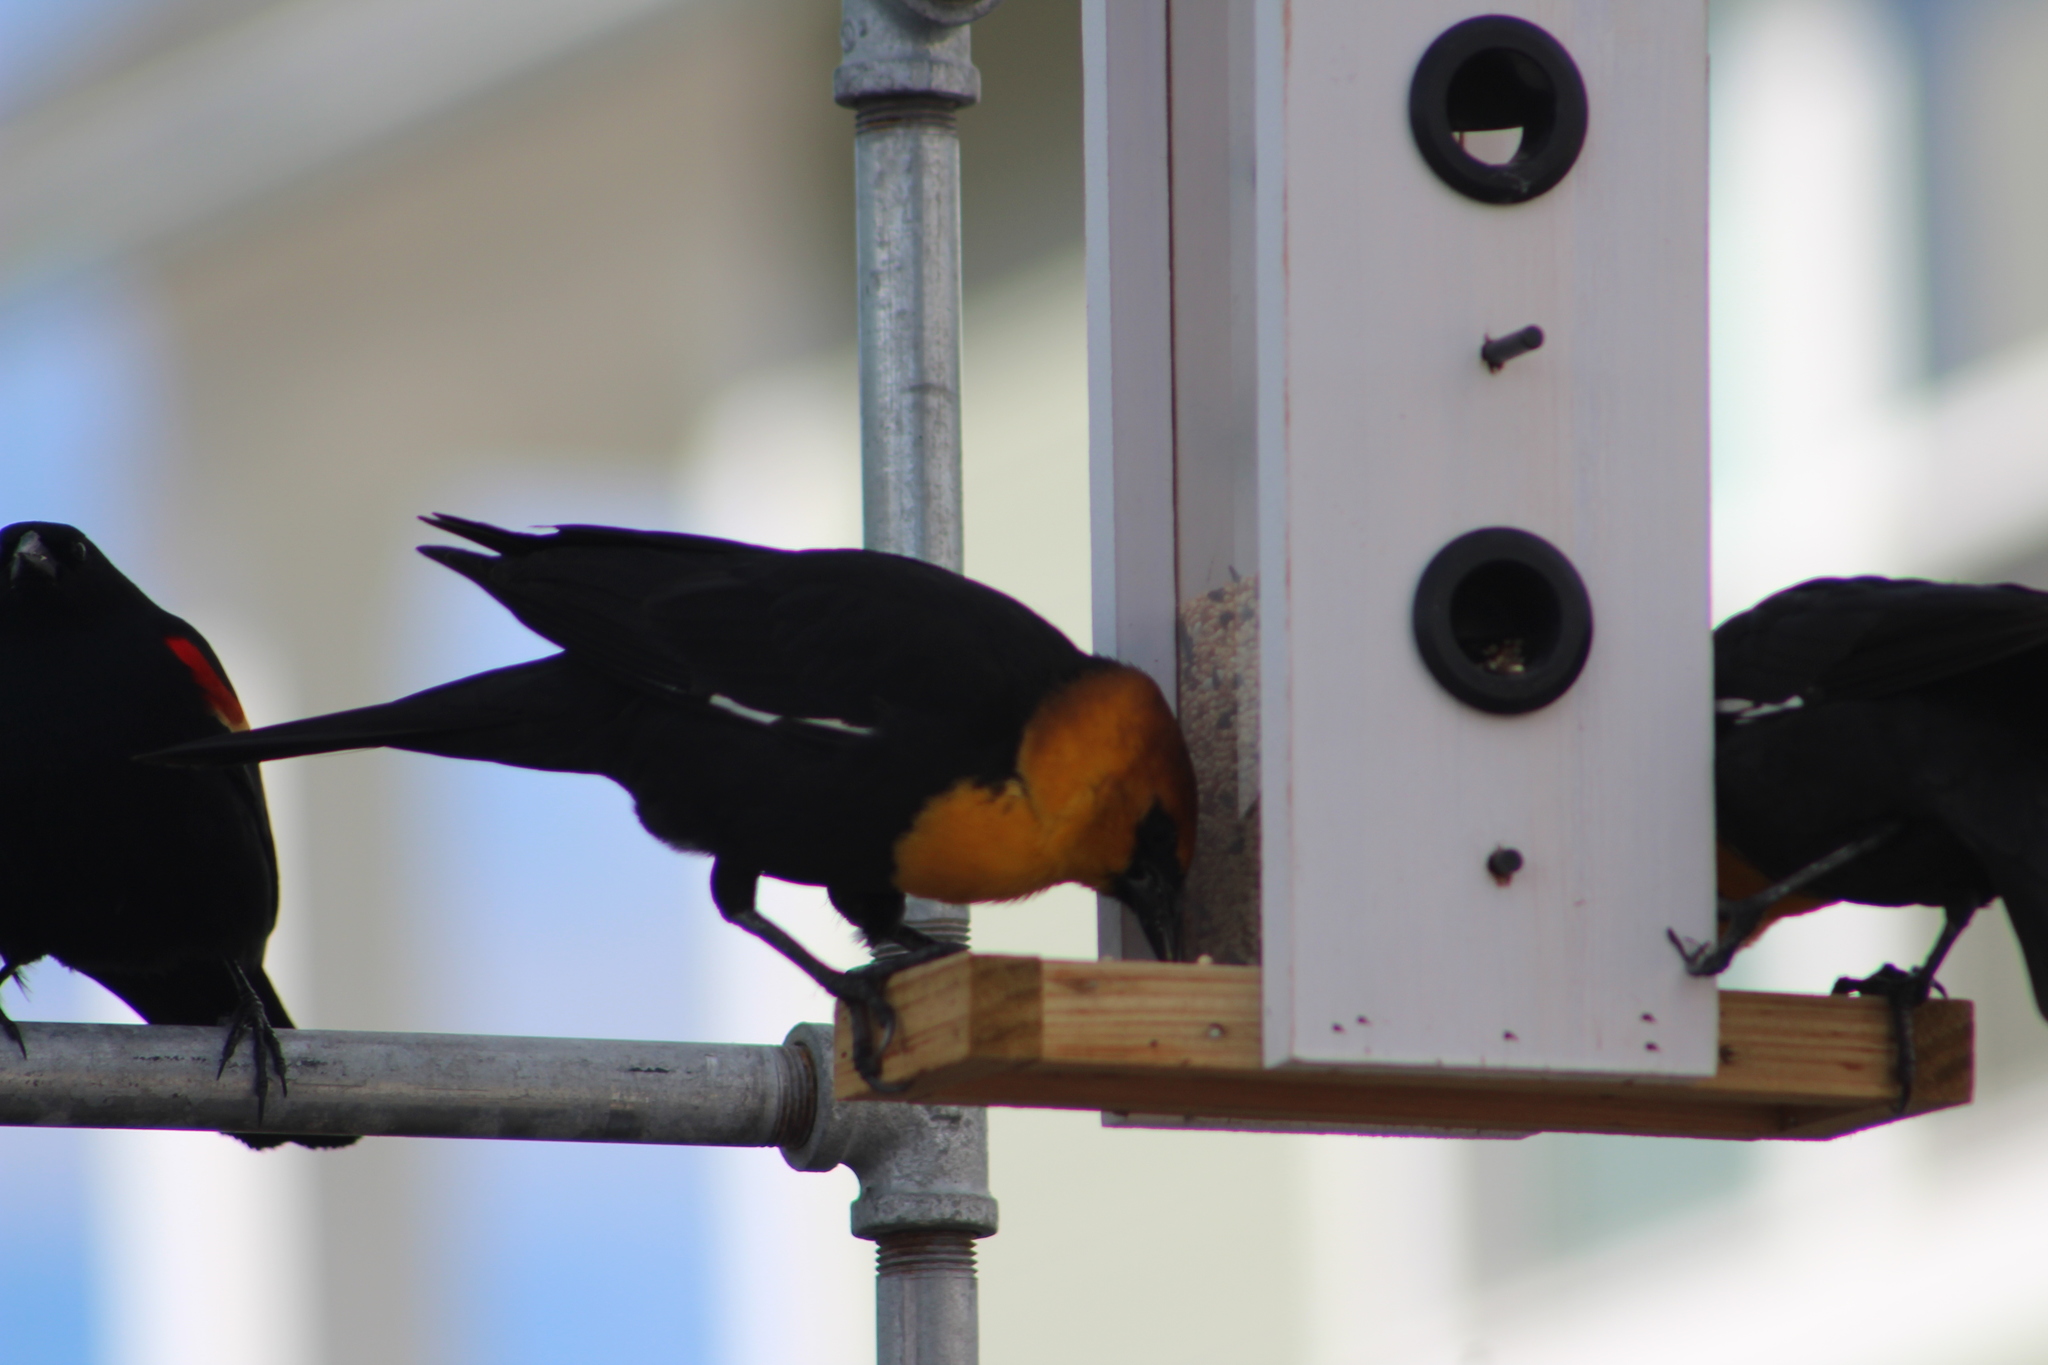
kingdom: Animalia
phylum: Chordata
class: Aves
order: Passeriformes
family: Icteridae
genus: Xanthocephalus
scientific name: Xanthocephalus xanthocephalus
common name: Yellow-headed blackbird
